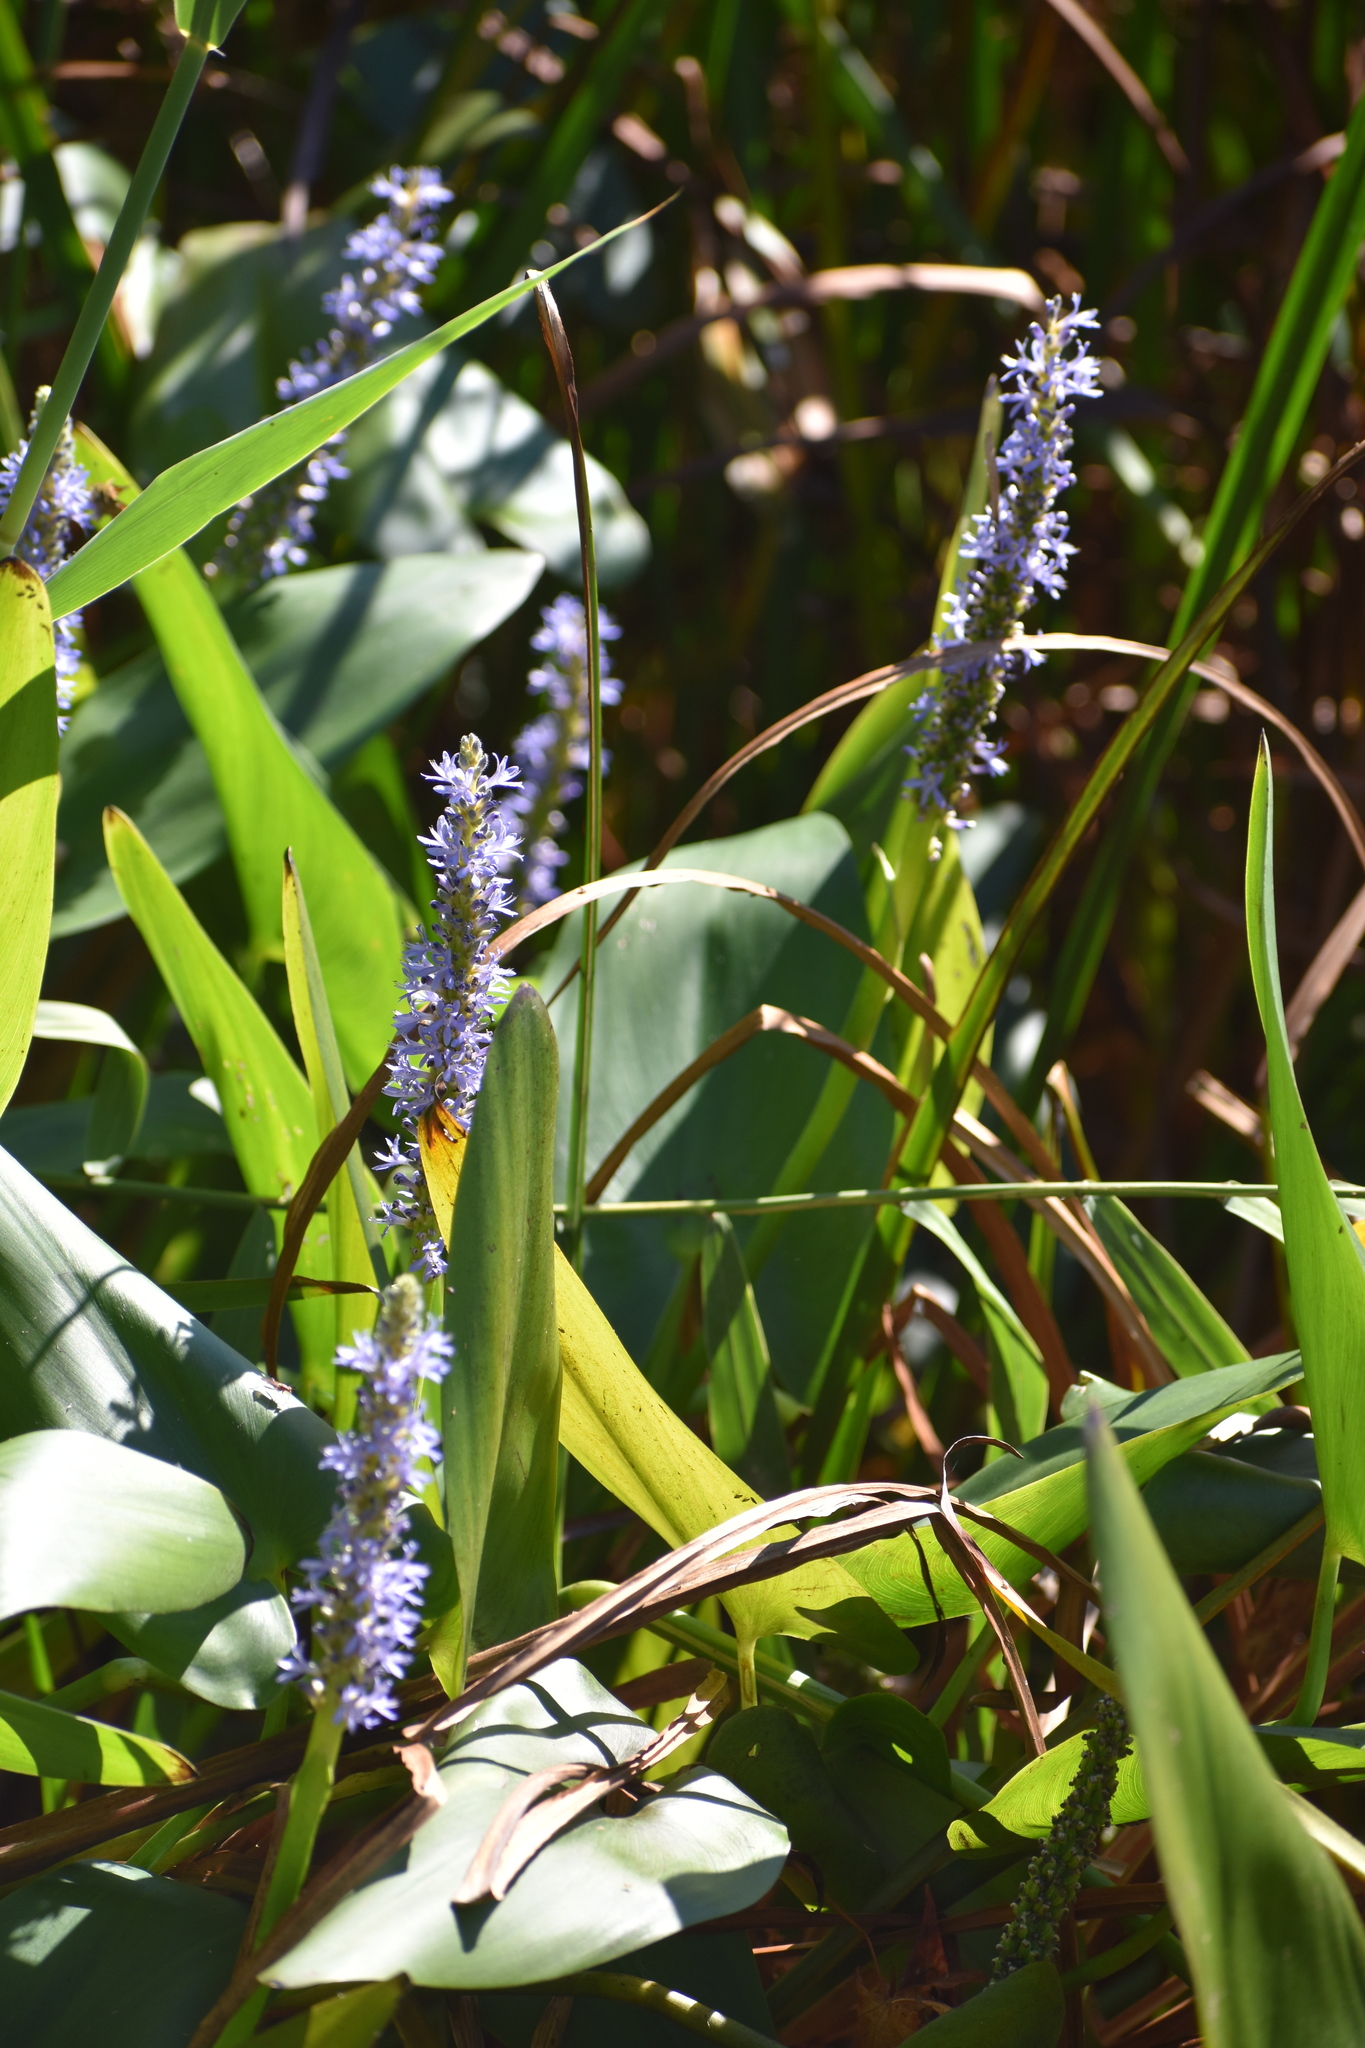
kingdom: Plantae
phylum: Tracheophyta
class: Liliopsida
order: Commelinales
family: Pontederiaceae
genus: Pontederia
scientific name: Pontederia cordata
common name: Pickerelweed
